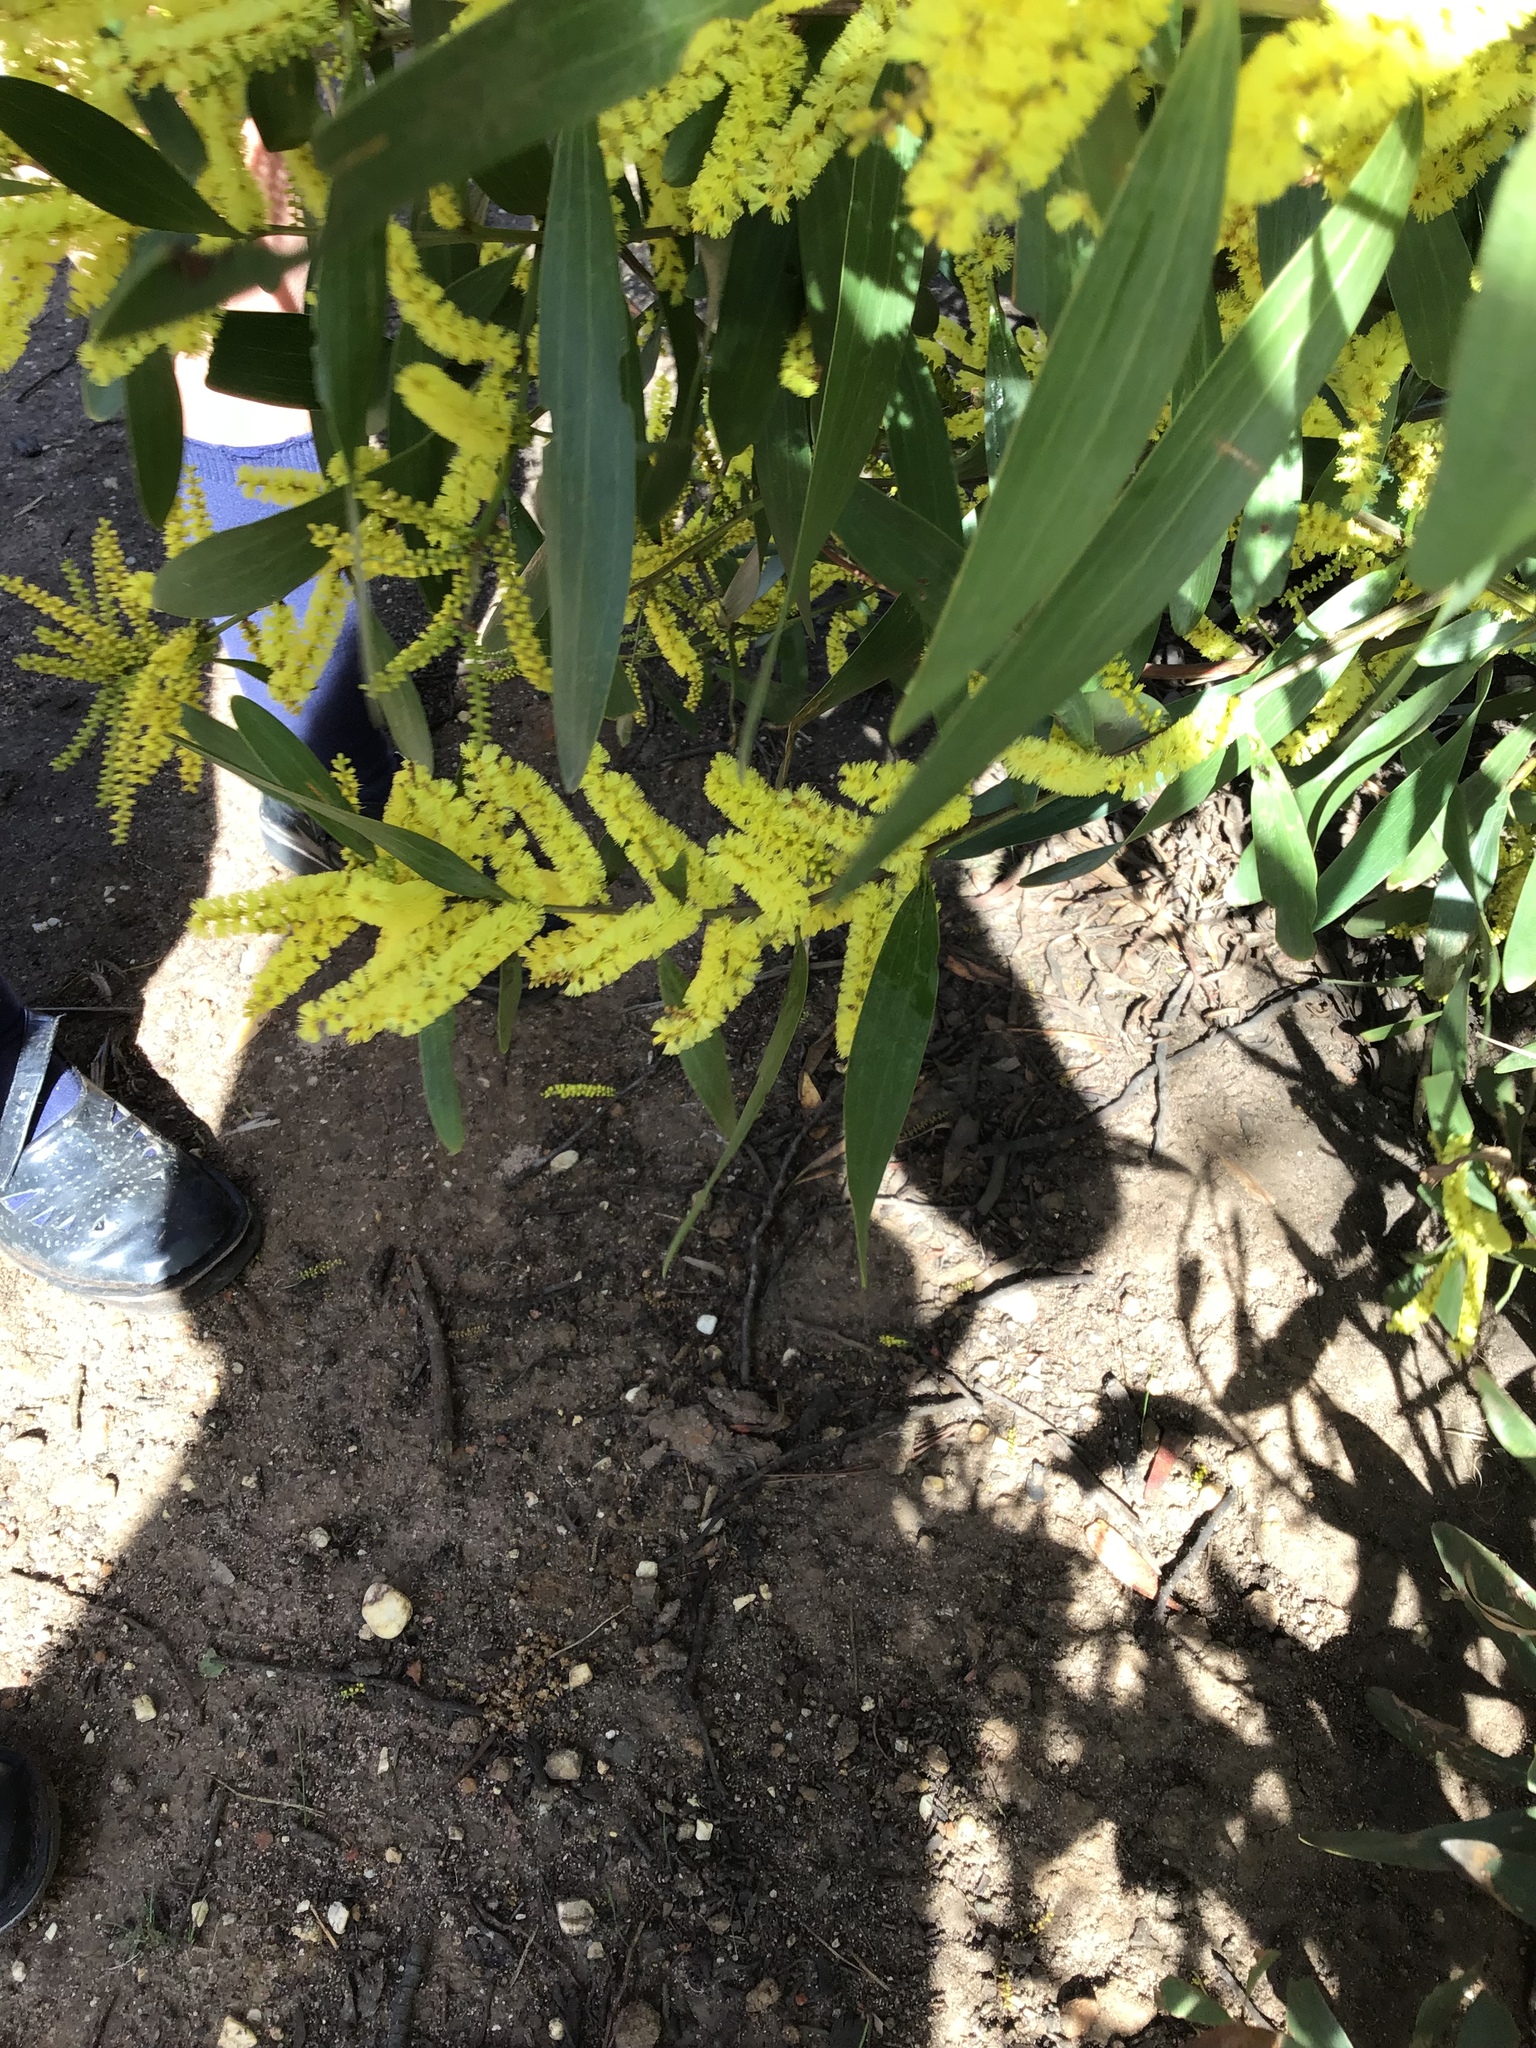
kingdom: Plantae
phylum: Tracheophyta
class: Magnoliopsida
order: Fabales
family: Fabaceae
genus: Acacia
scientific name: Acacia longifolia
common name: Sydney golden wattle
